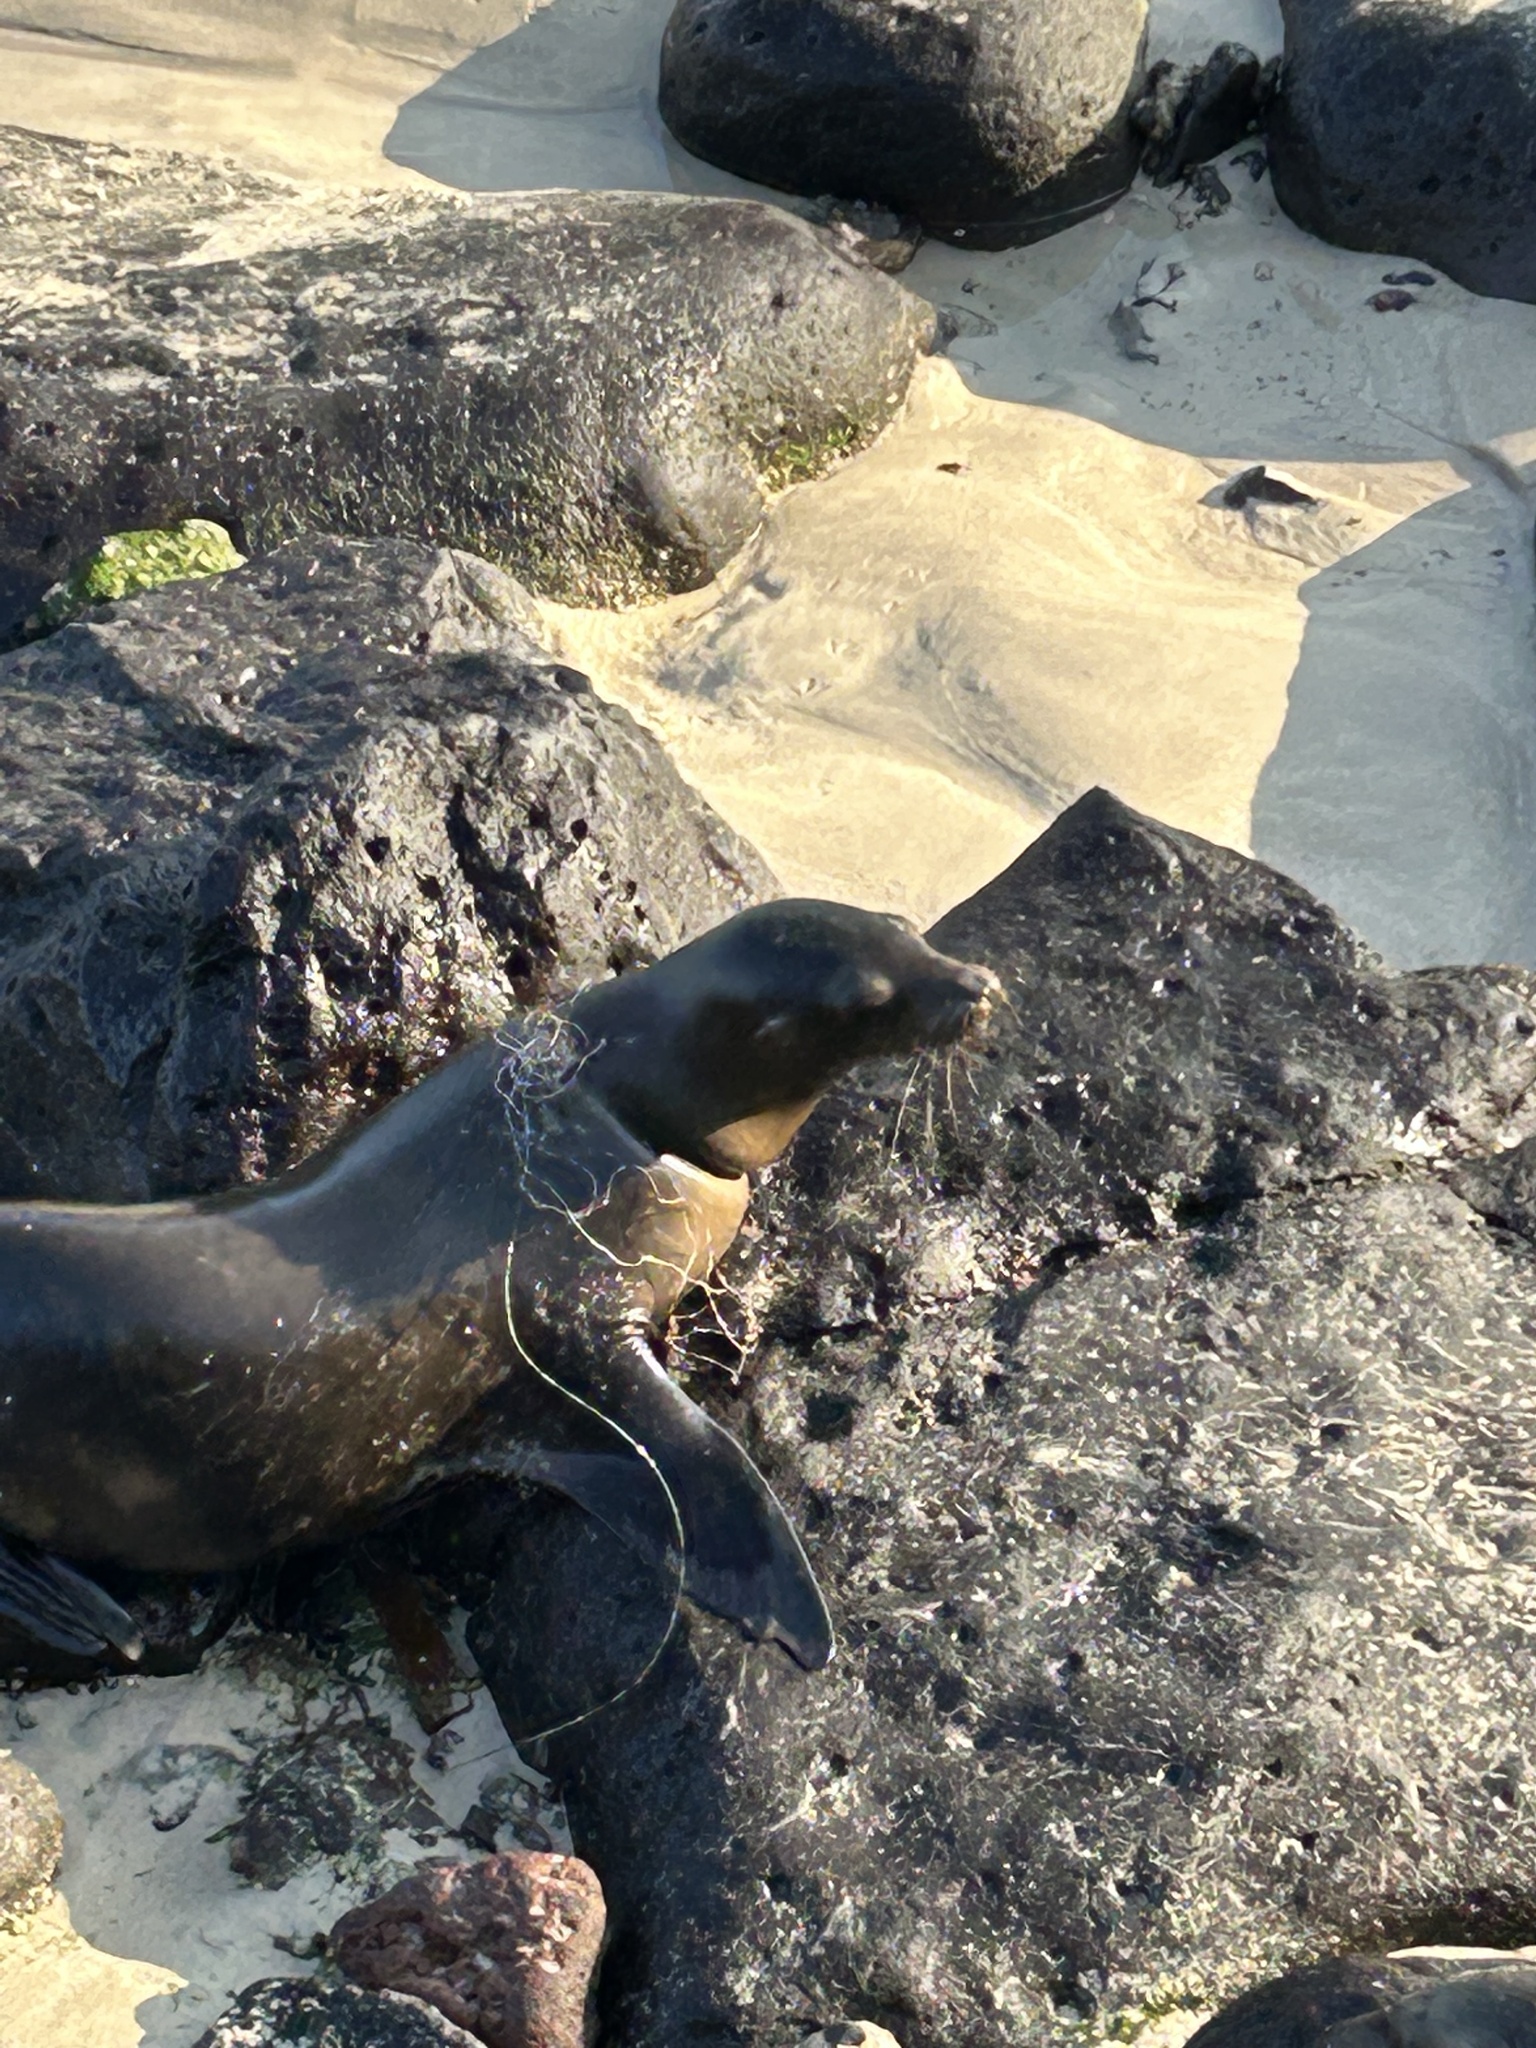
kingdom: Animalia
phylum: Chordata
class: Mammalia
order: Carnivora
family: Otariidae
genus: Zalophus
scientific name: Zalophus wollebaeki
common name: Galapagos sea lion
